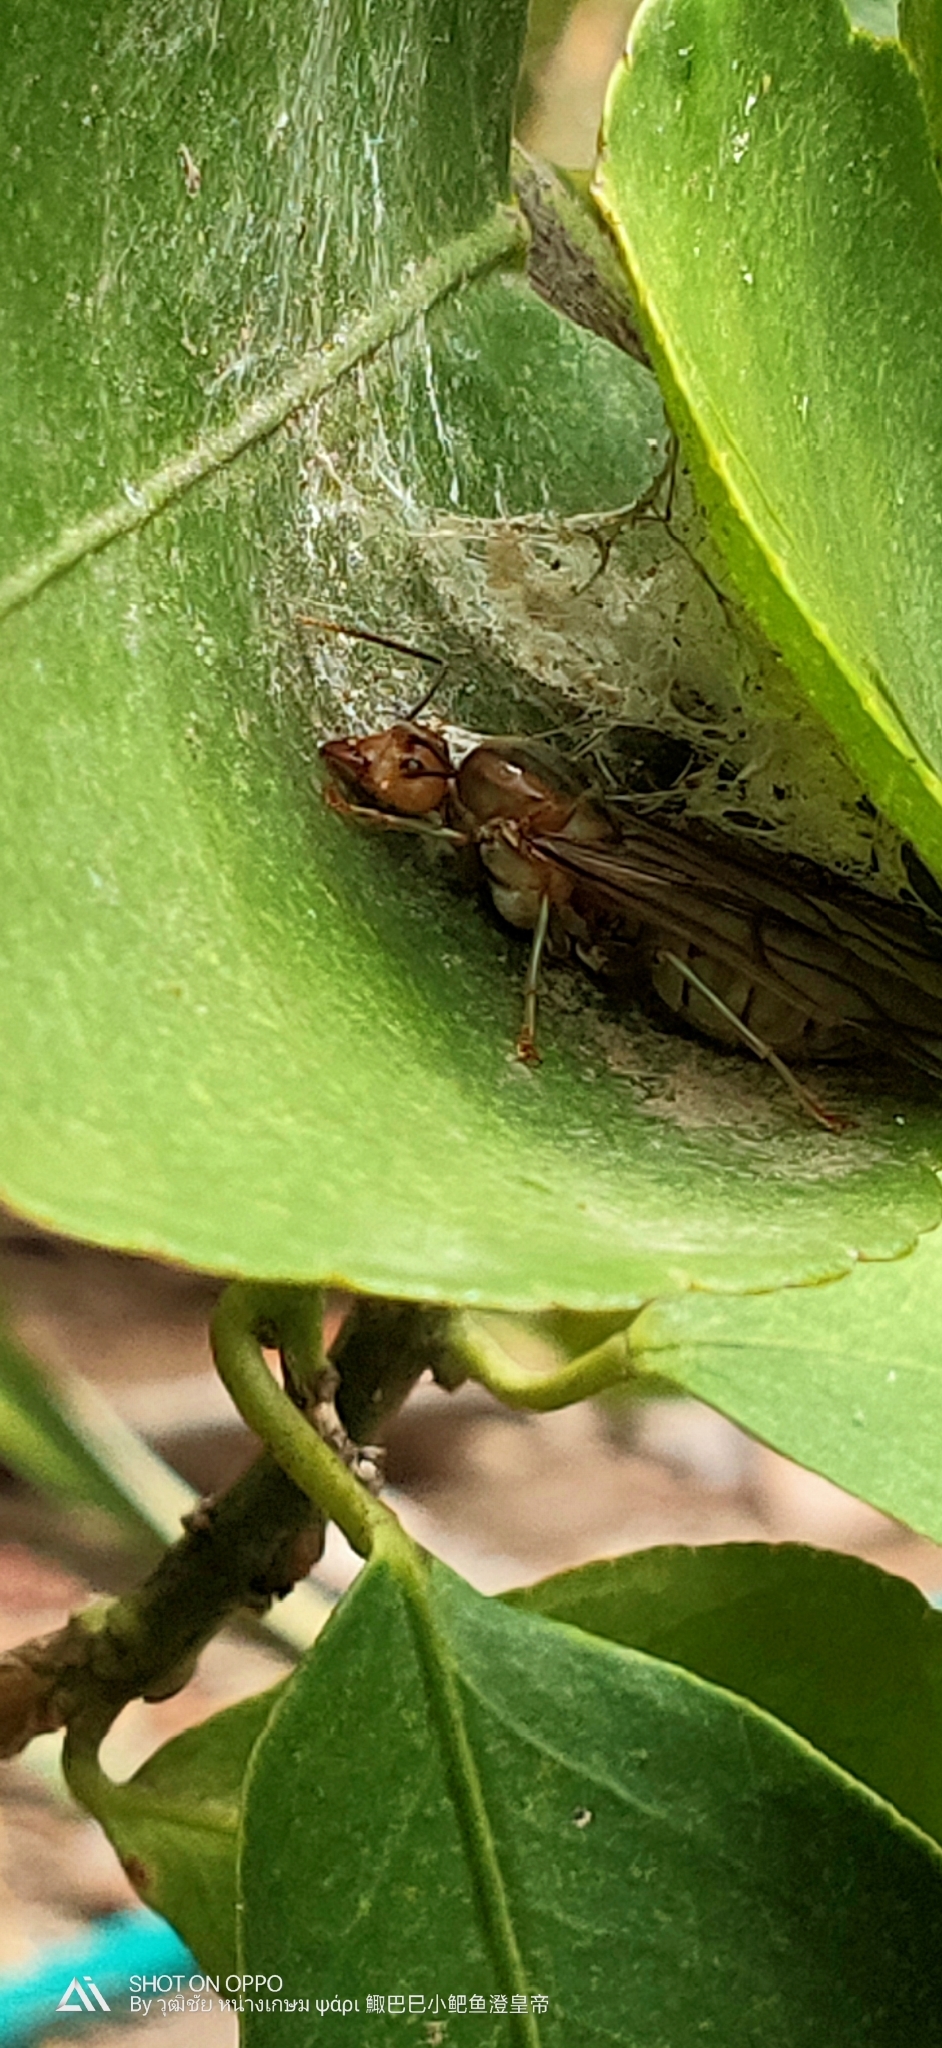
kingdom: Animalia
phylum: Arthropoda
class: Insecta
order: Hymenoptera
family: Formicidae
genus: Oecophylla
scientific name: Oecophylla smaragdina
